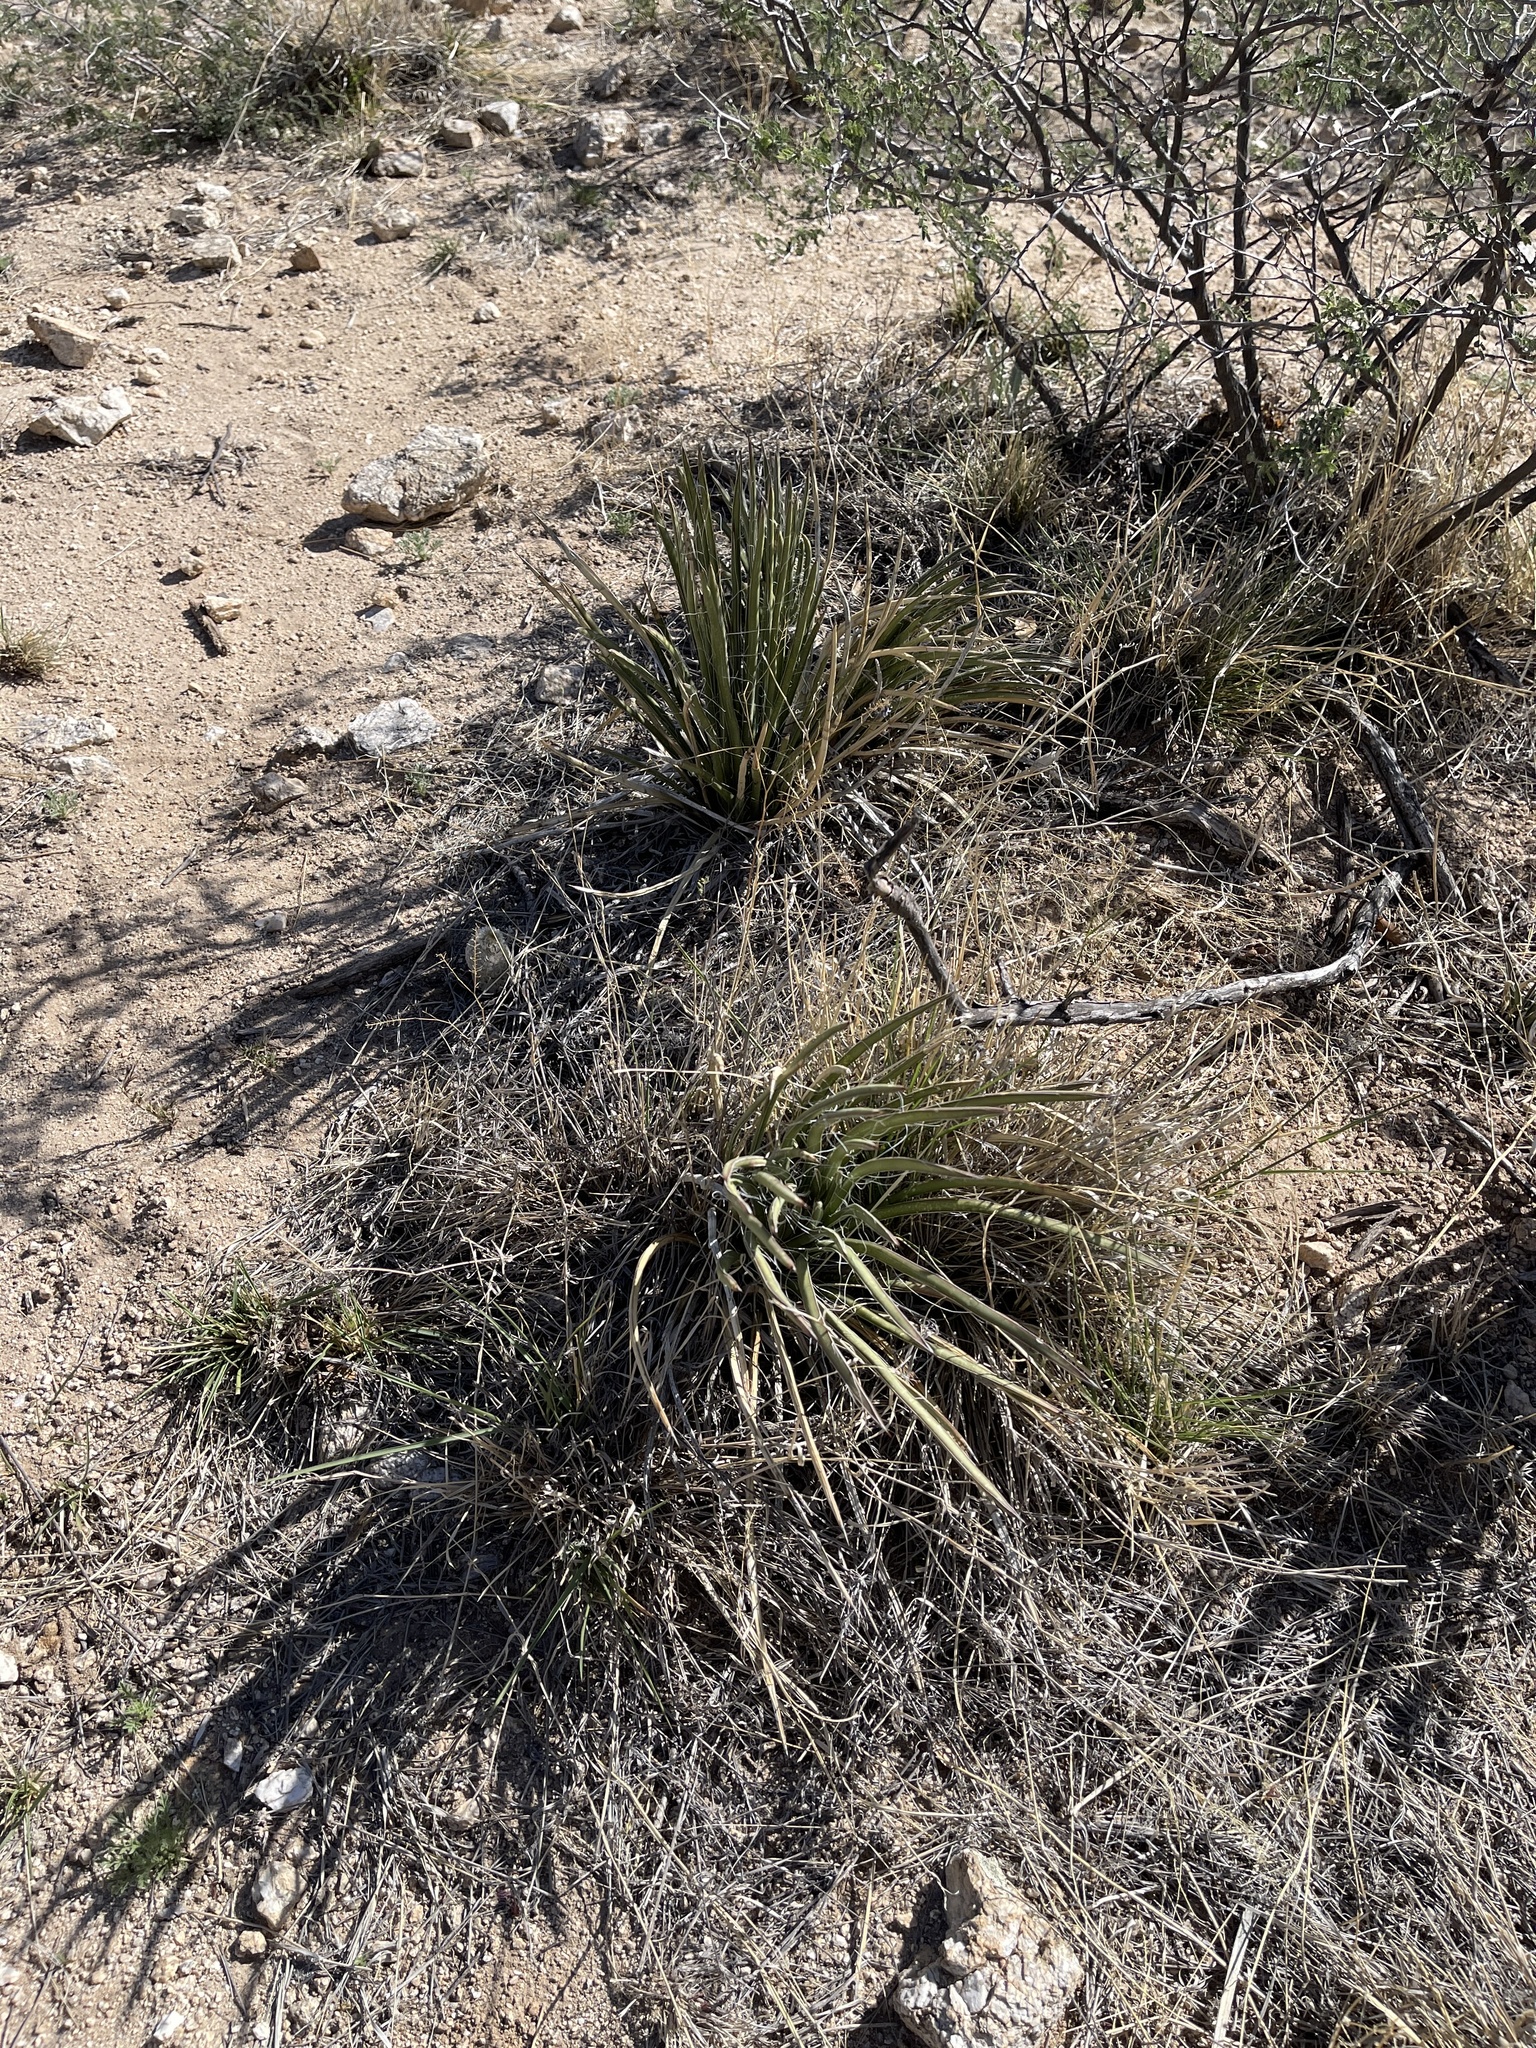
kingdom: Plantae
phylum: Tracheophyta
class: Liliopsida
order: Asparagales
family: Asparagaceae
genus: Agave
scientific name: Agave schottii
